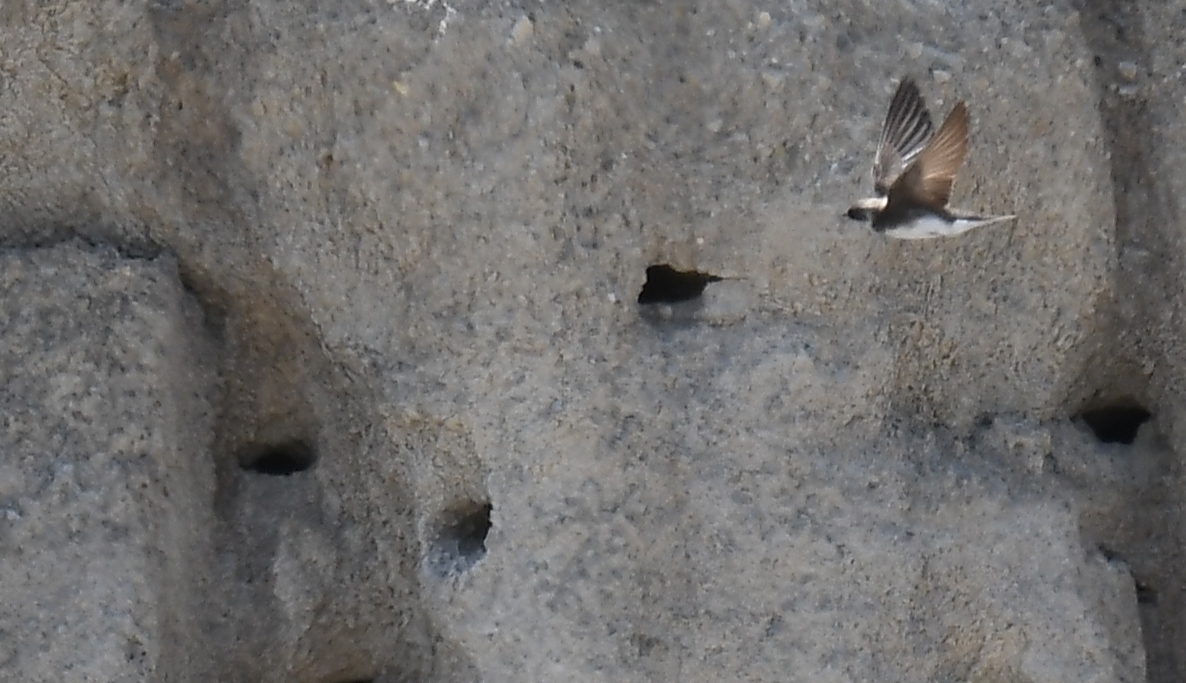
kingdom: Animalia
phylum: Chordata
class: Aves
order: Passeriformes
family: Hirundinidae
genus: Riparia
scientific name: Riparia riparia
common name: Sand martin
